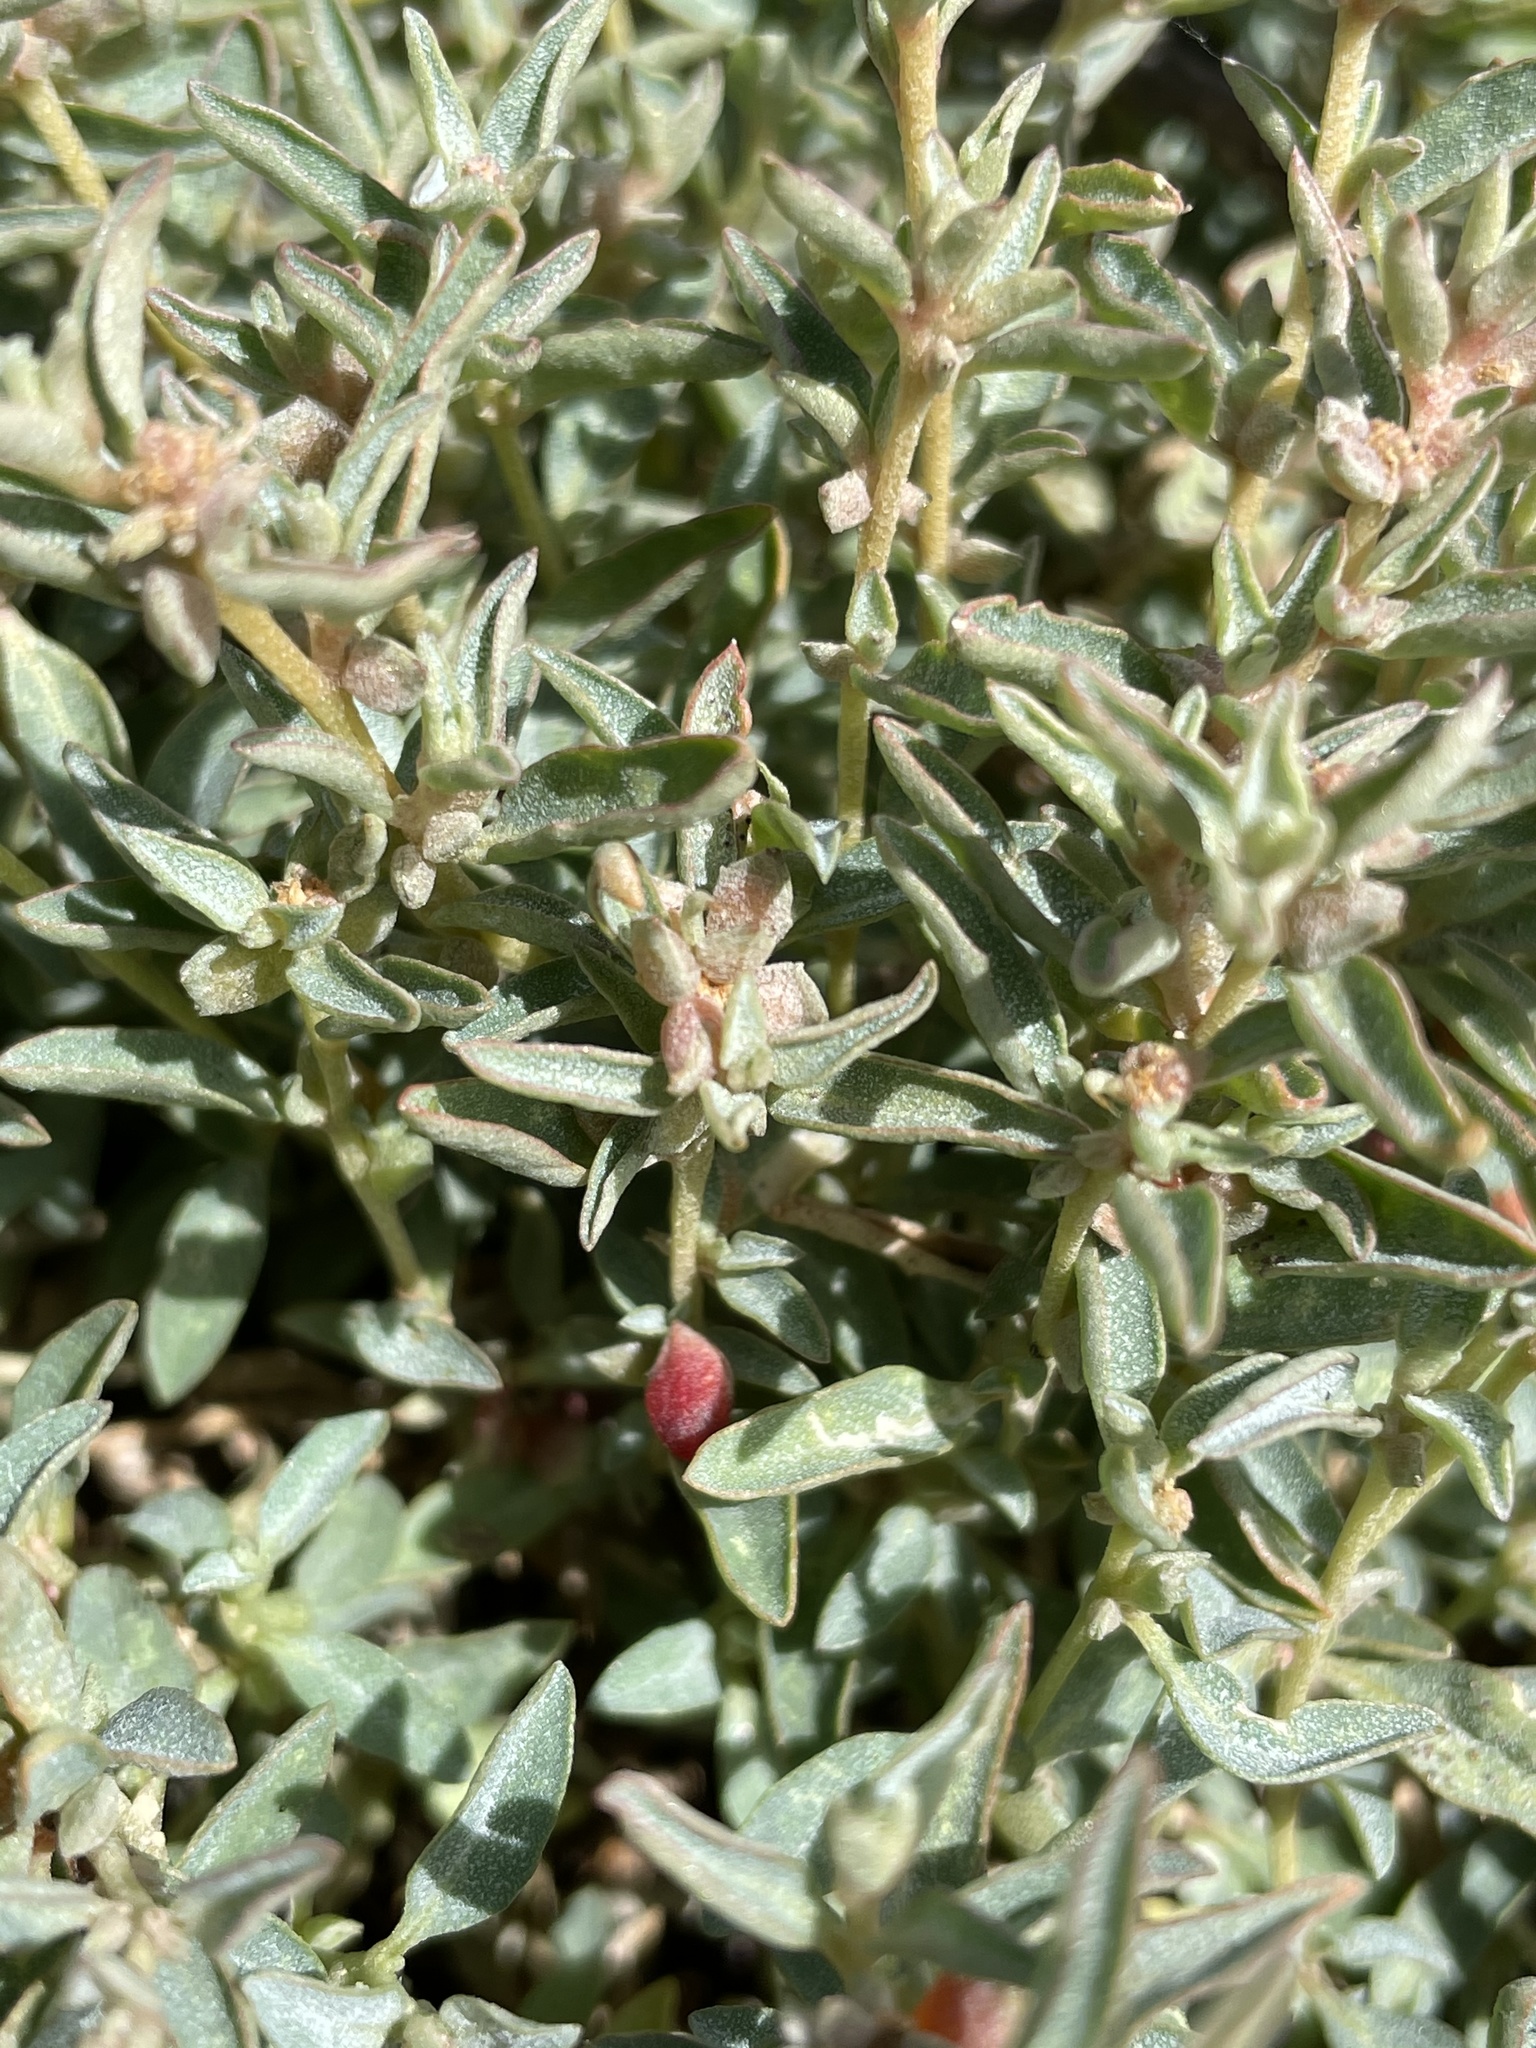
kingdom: Plantae
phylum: Tracheophyta
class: Magnoliopsida
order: Caryophyllales
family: Amaranthaceae
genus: Atriplex
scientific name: Atriplex semibaccata
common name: Australian saltbush
